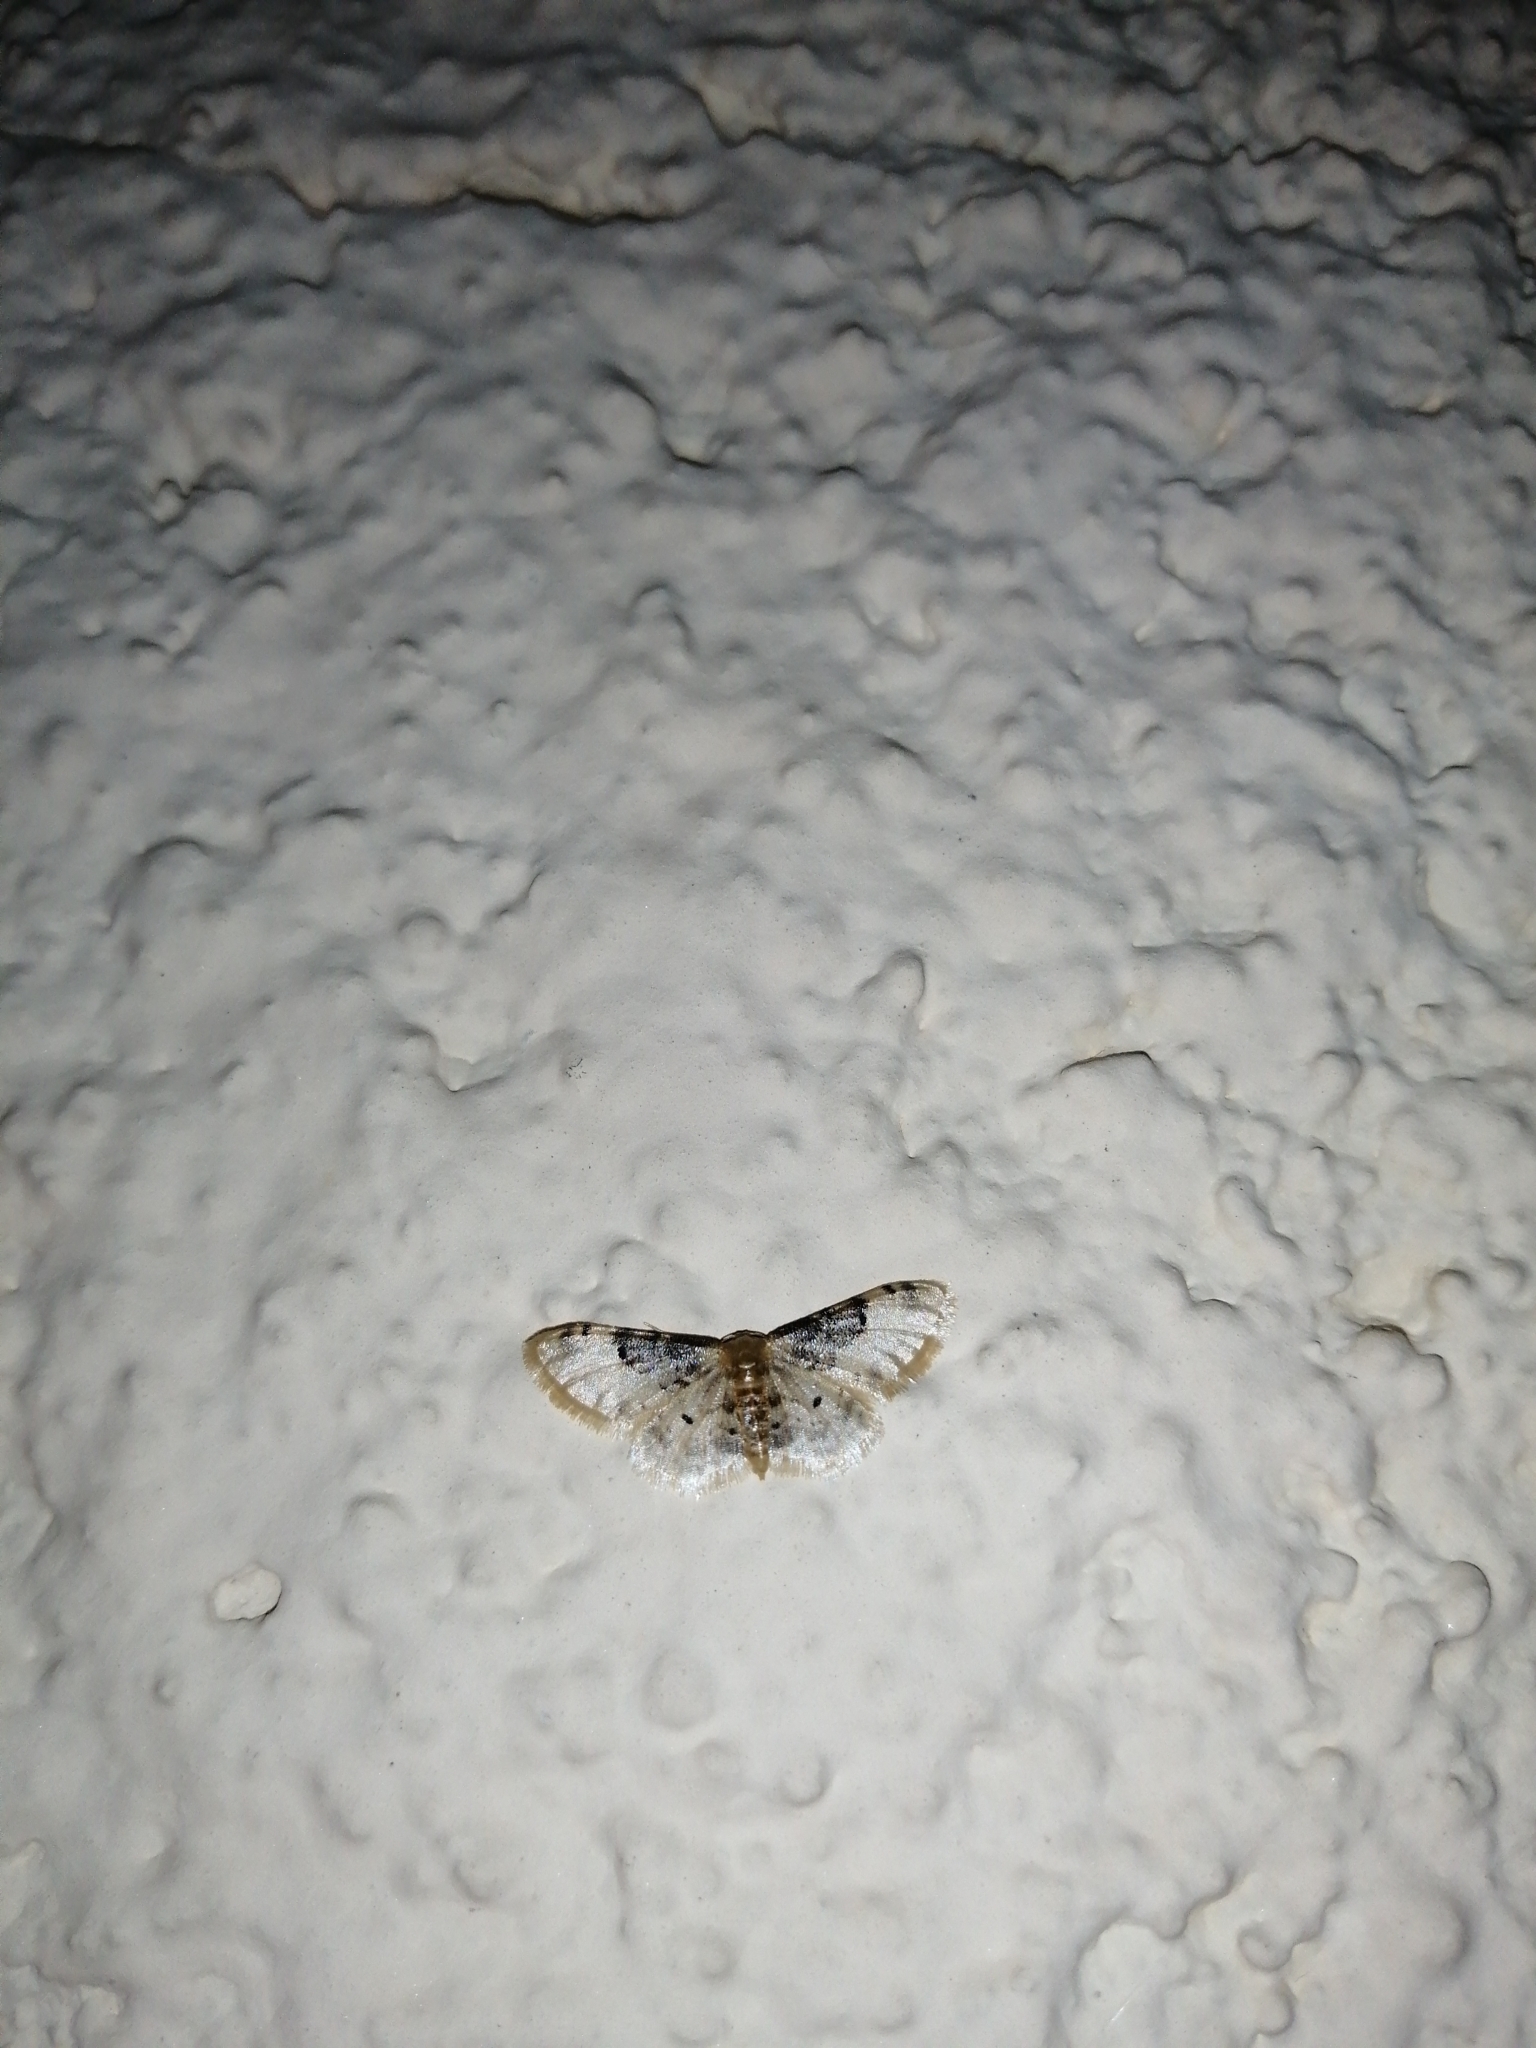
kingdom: Animalia
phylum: Arthropoda
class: Insecta
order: Lepidoptera
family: Geometridae
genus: Idaea
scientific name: Idaea filicata
